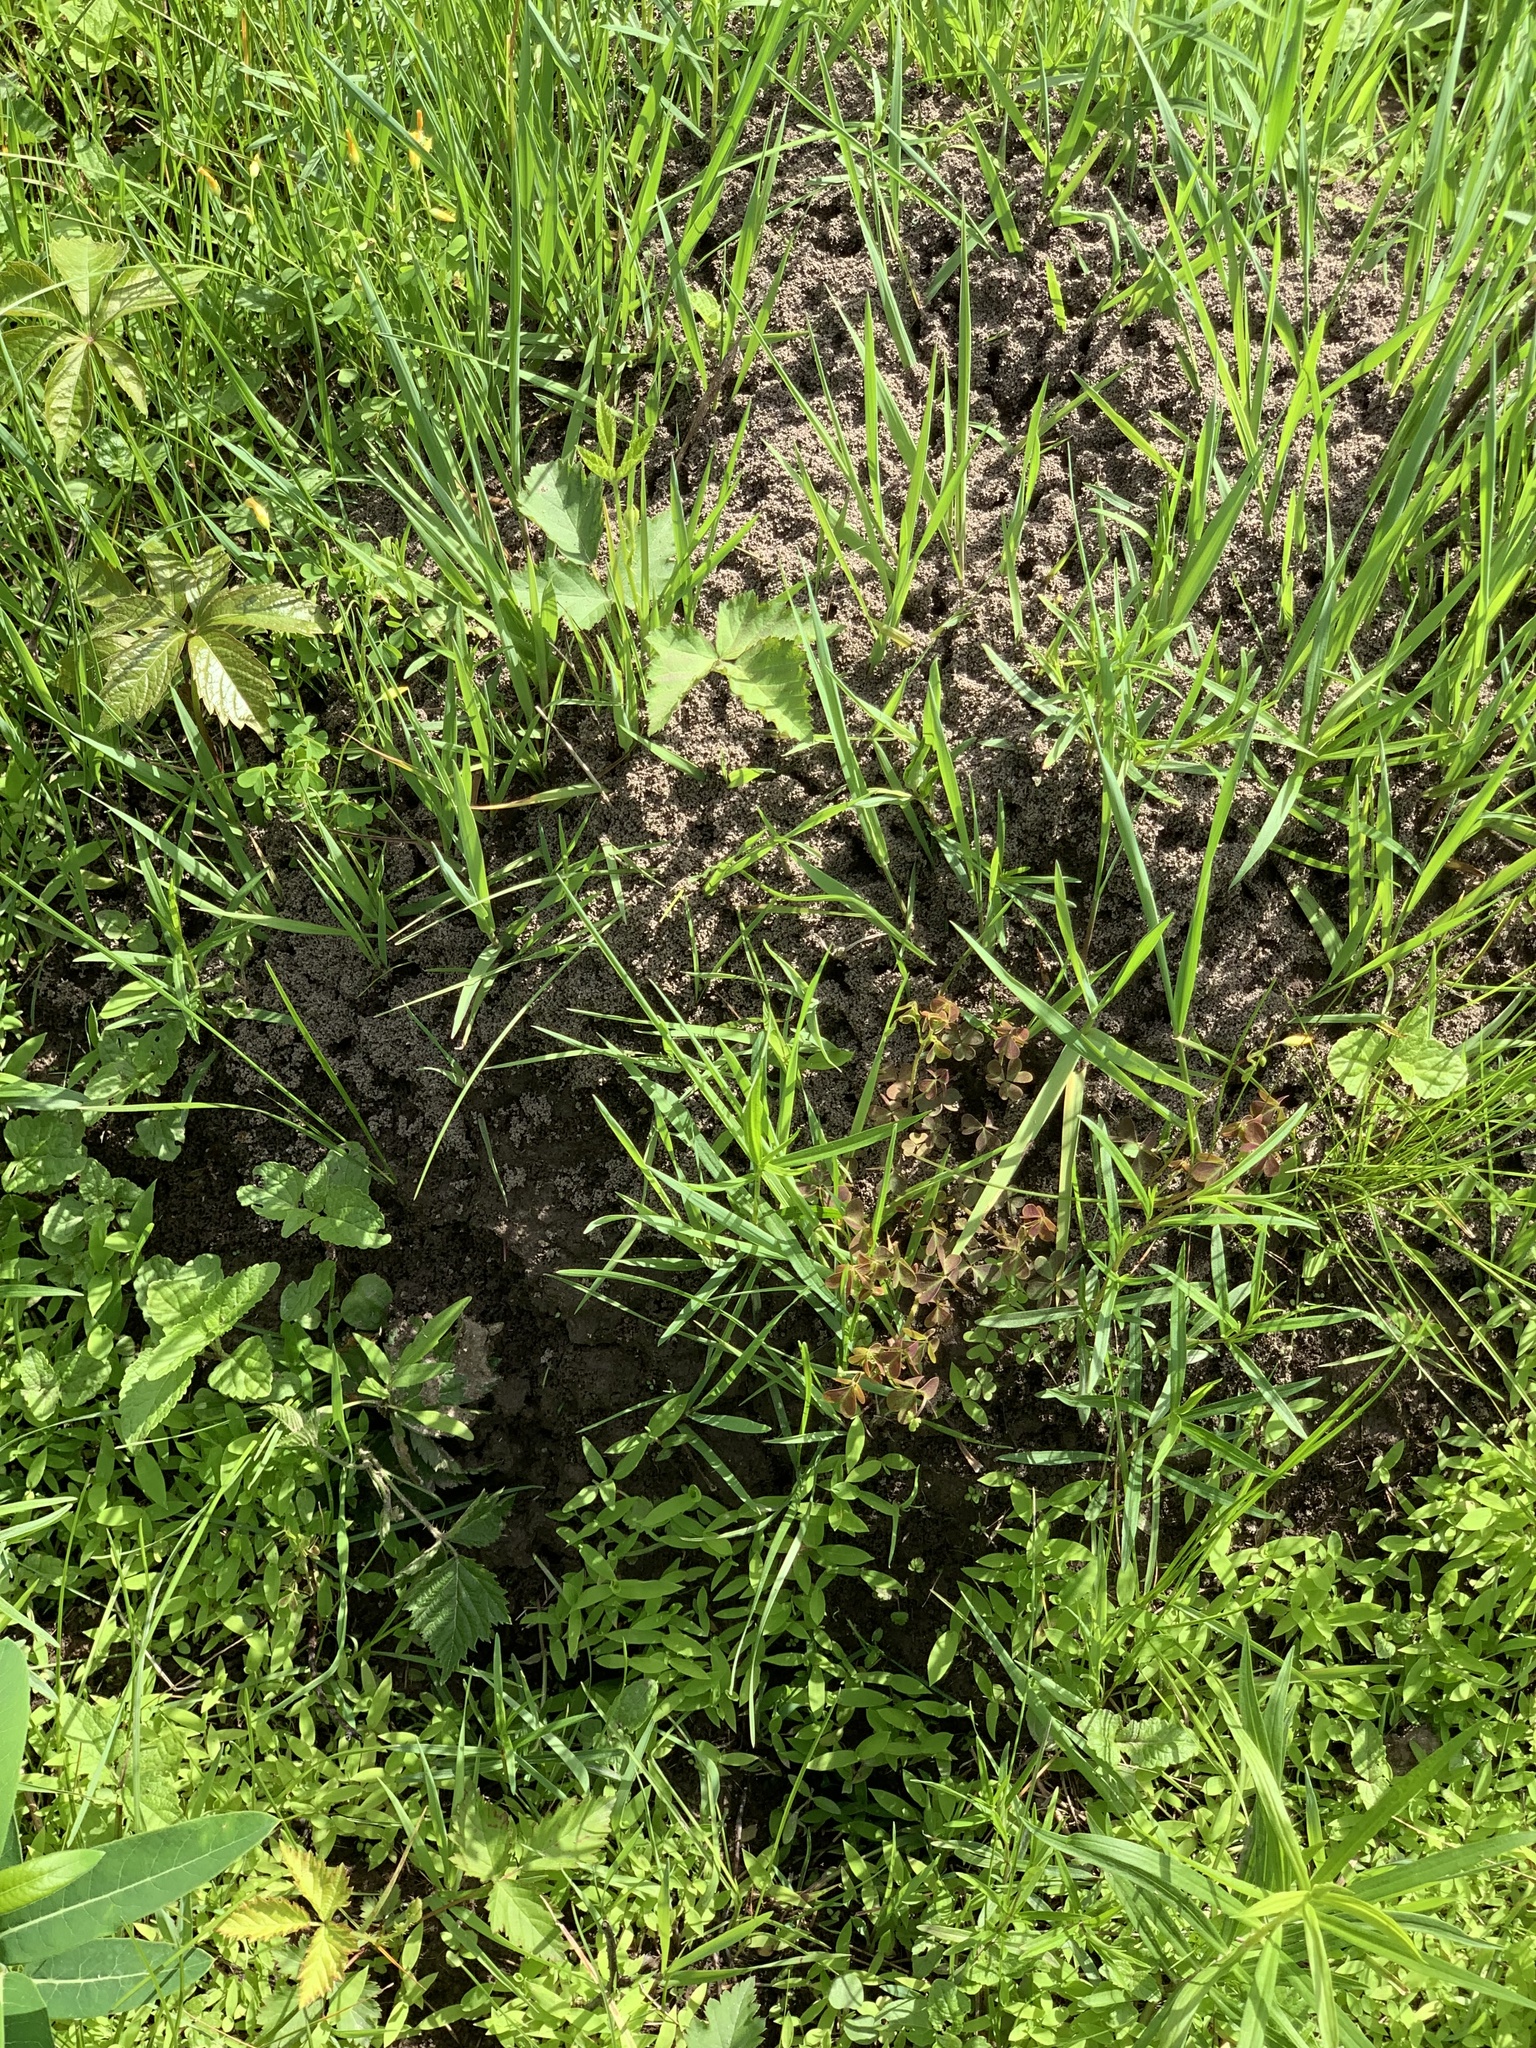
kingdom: Animalia
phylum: Arthropoda
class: Insecta
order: Hymenoptera
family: Formicidae
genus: Formica
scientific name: Formica
